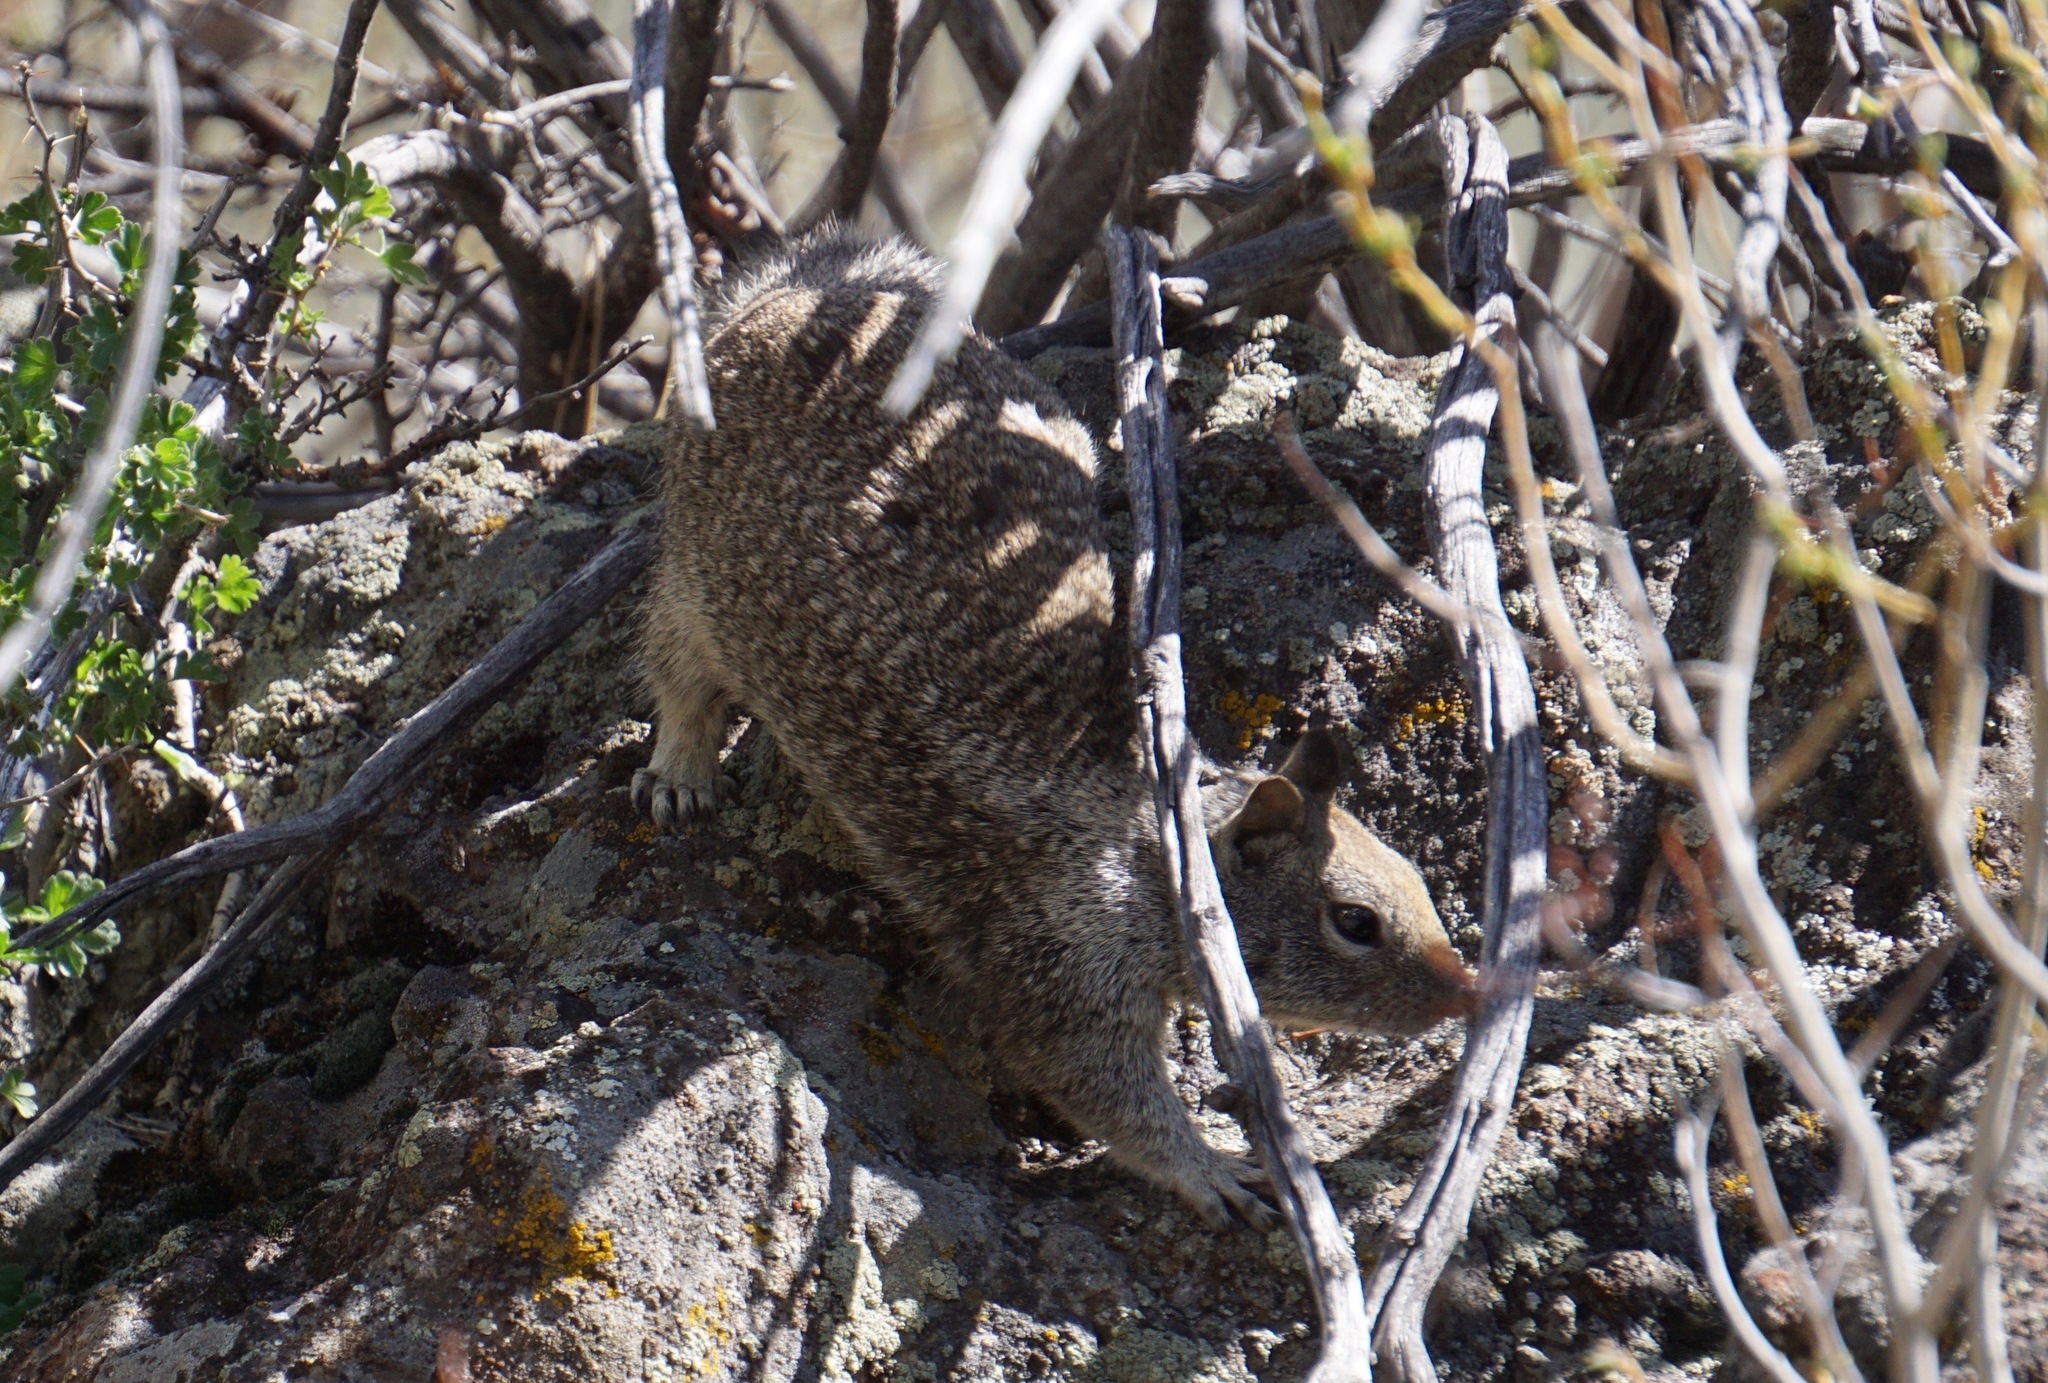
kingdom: Animalia
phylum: Chordata
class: Mammalia
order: Rodentia
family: Sciuridae
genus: Otospermophilus
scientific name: Otospermophilus beecheyi
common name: California ground squirrel
